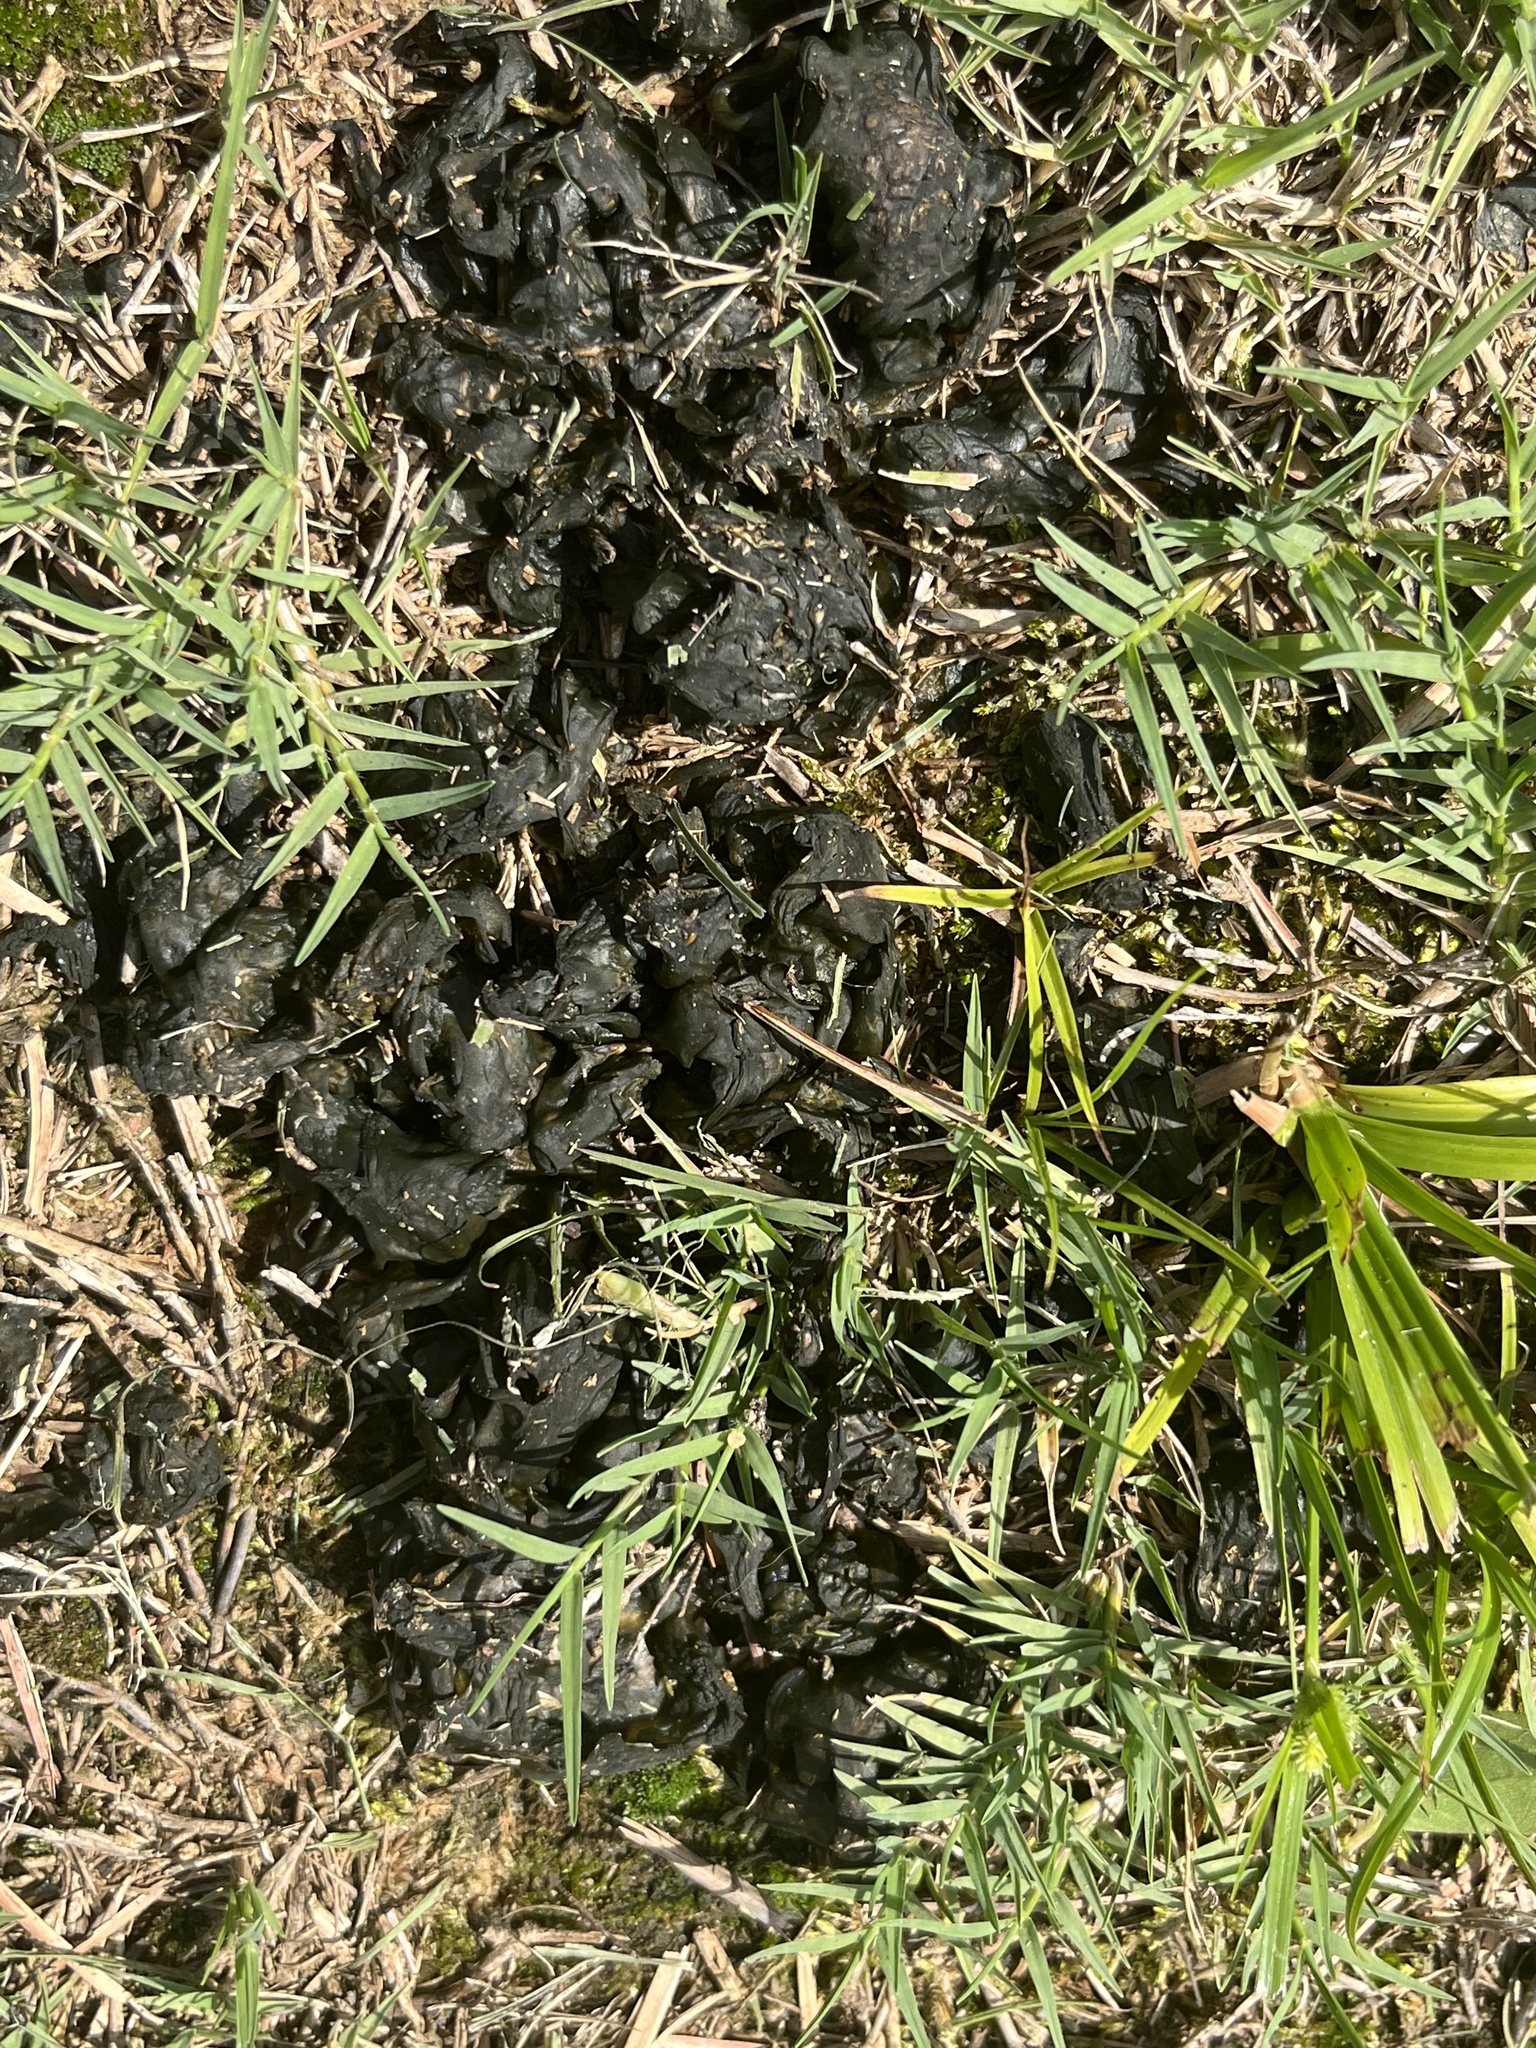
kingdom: Bacteria
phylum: Cyanobacteria
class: Cyanobacteriia
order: Cyanobacteriales
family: Nostocaceae
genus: Nostoc
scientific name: Nostoc commune
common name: Star jelly
